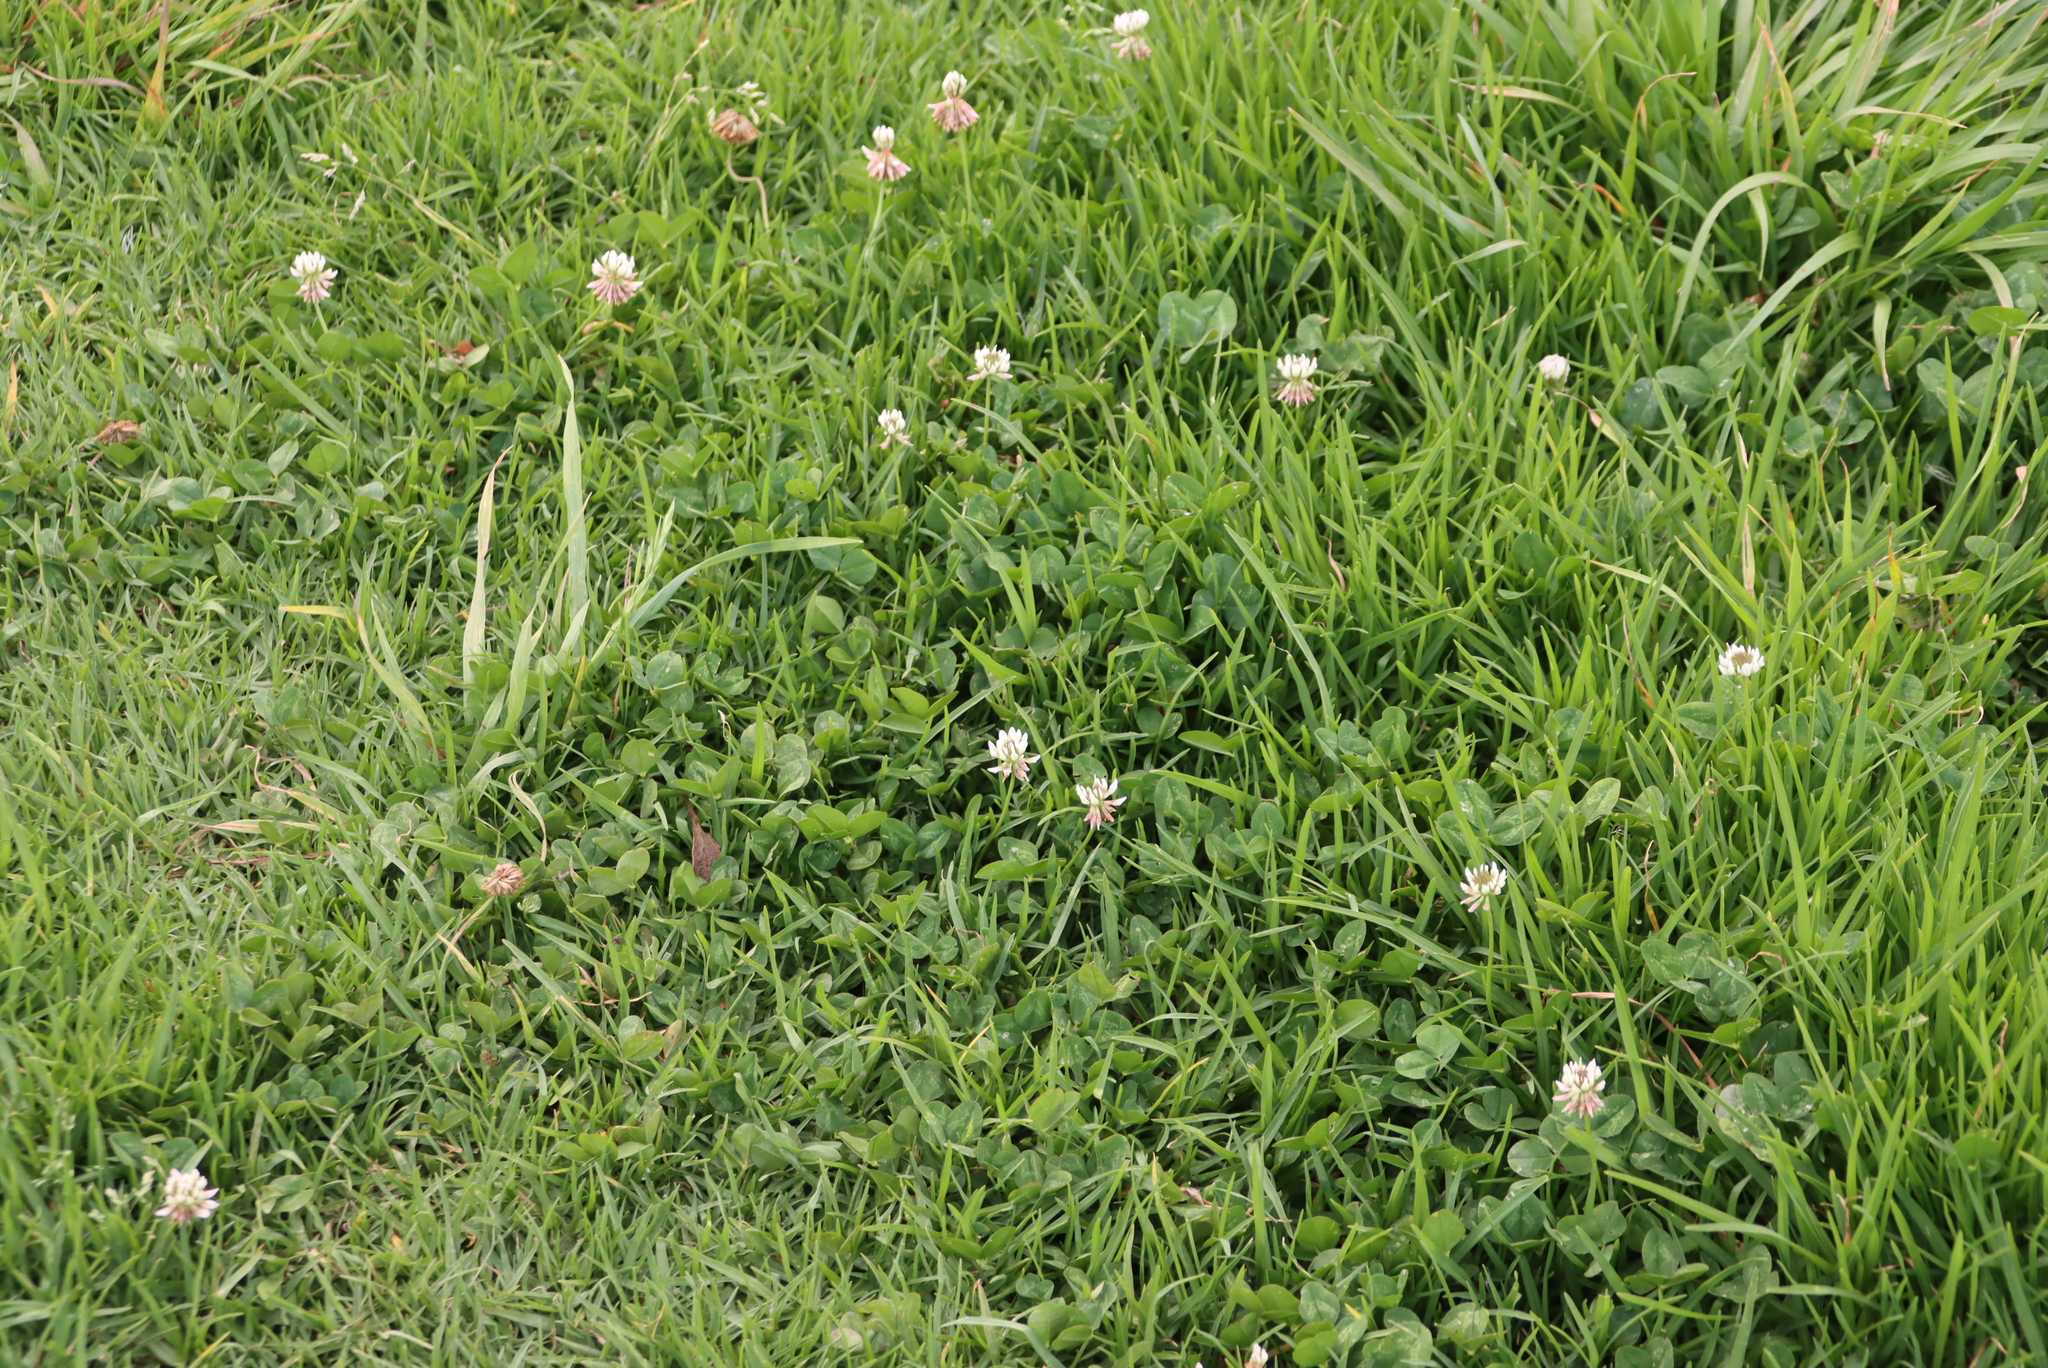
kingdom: Plantae
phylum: Tracheophyta
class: Magnoliopsida
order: Fabales
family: Fabaceae
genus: Trifolium
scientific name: Trifolium repens
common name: White clover
